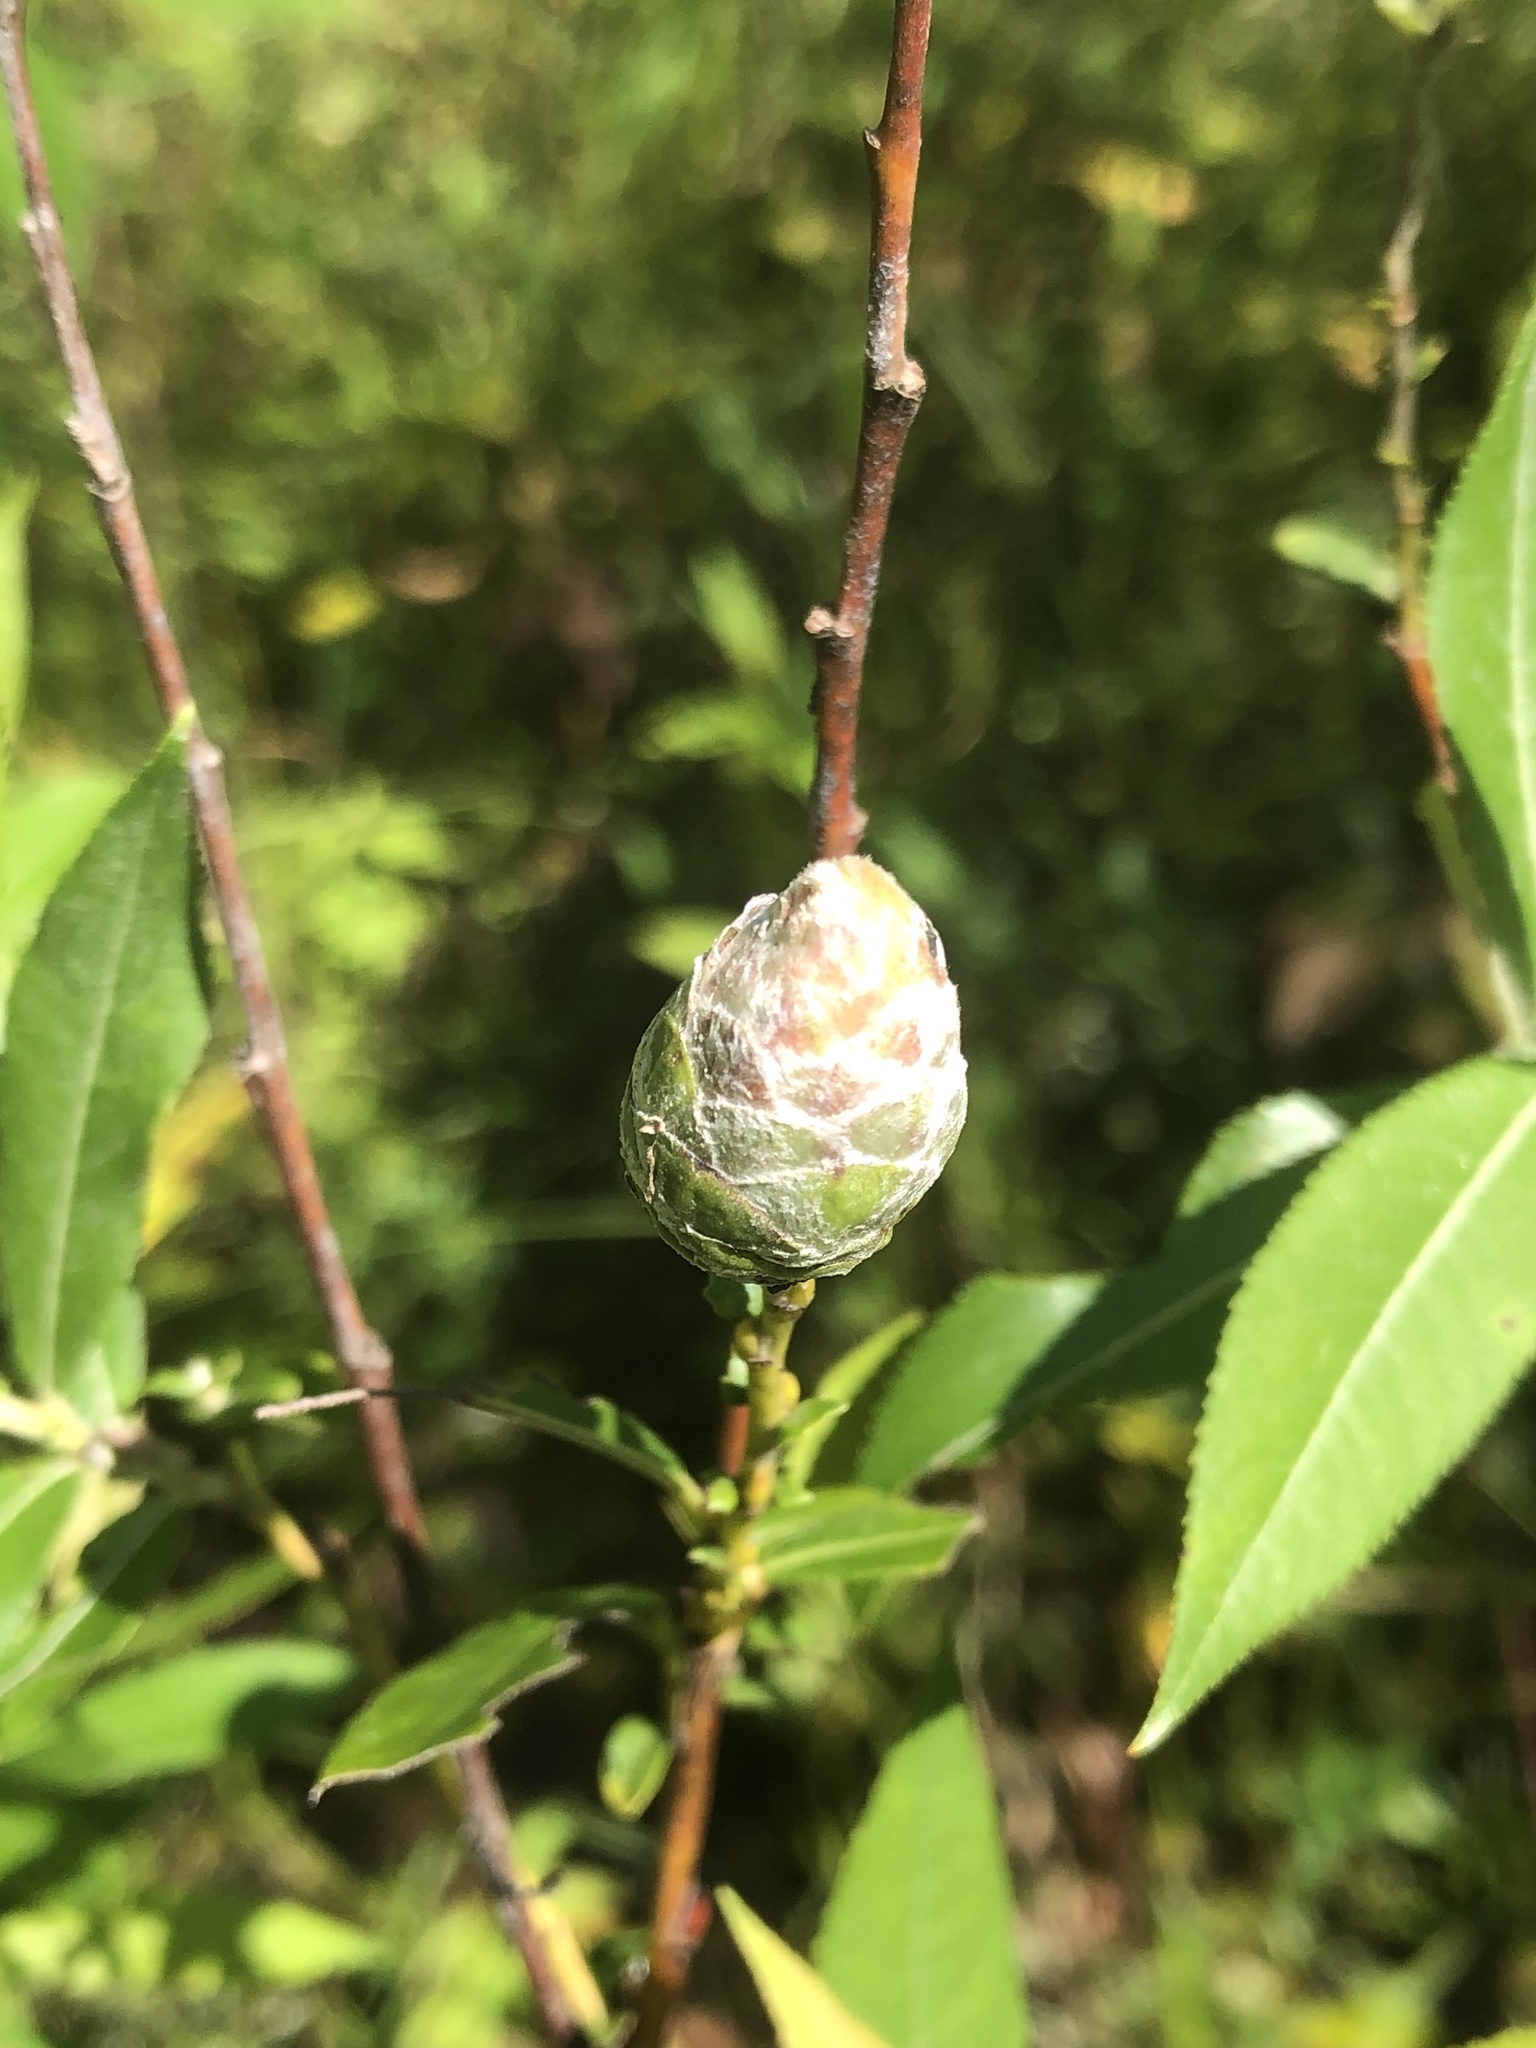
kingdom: Animalia
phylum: Arthropoda
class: Insecta
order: Diptera
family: Cecidomyiidae
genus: Rabdophaga
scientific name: Rabdophaga strobiloides
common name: Willow pinecone gall midge
